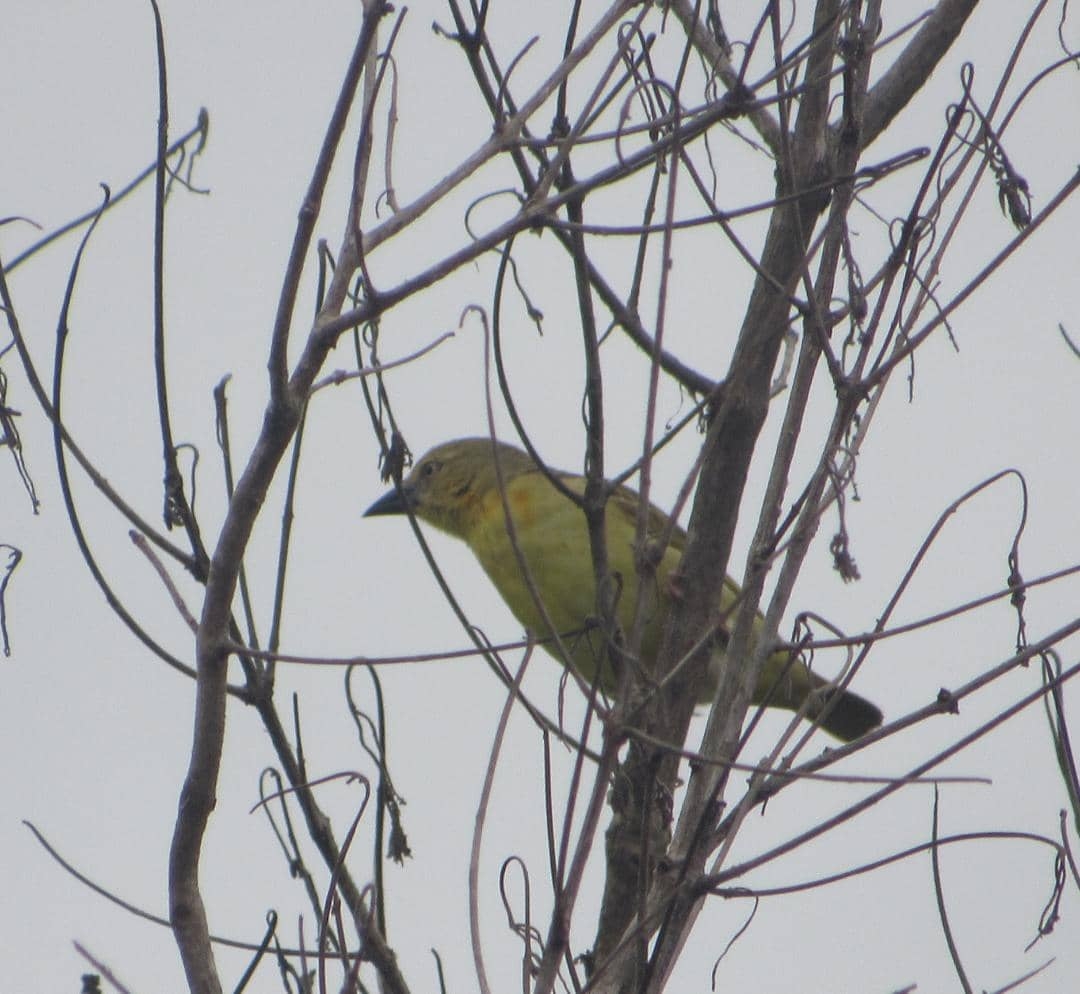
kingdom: Animalia
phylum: Chordata
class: Aves
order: Passeriformes
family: Ploceidae
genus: Ploceus
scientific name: Ploceus heuglini
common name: Heuglin's masked weaver
